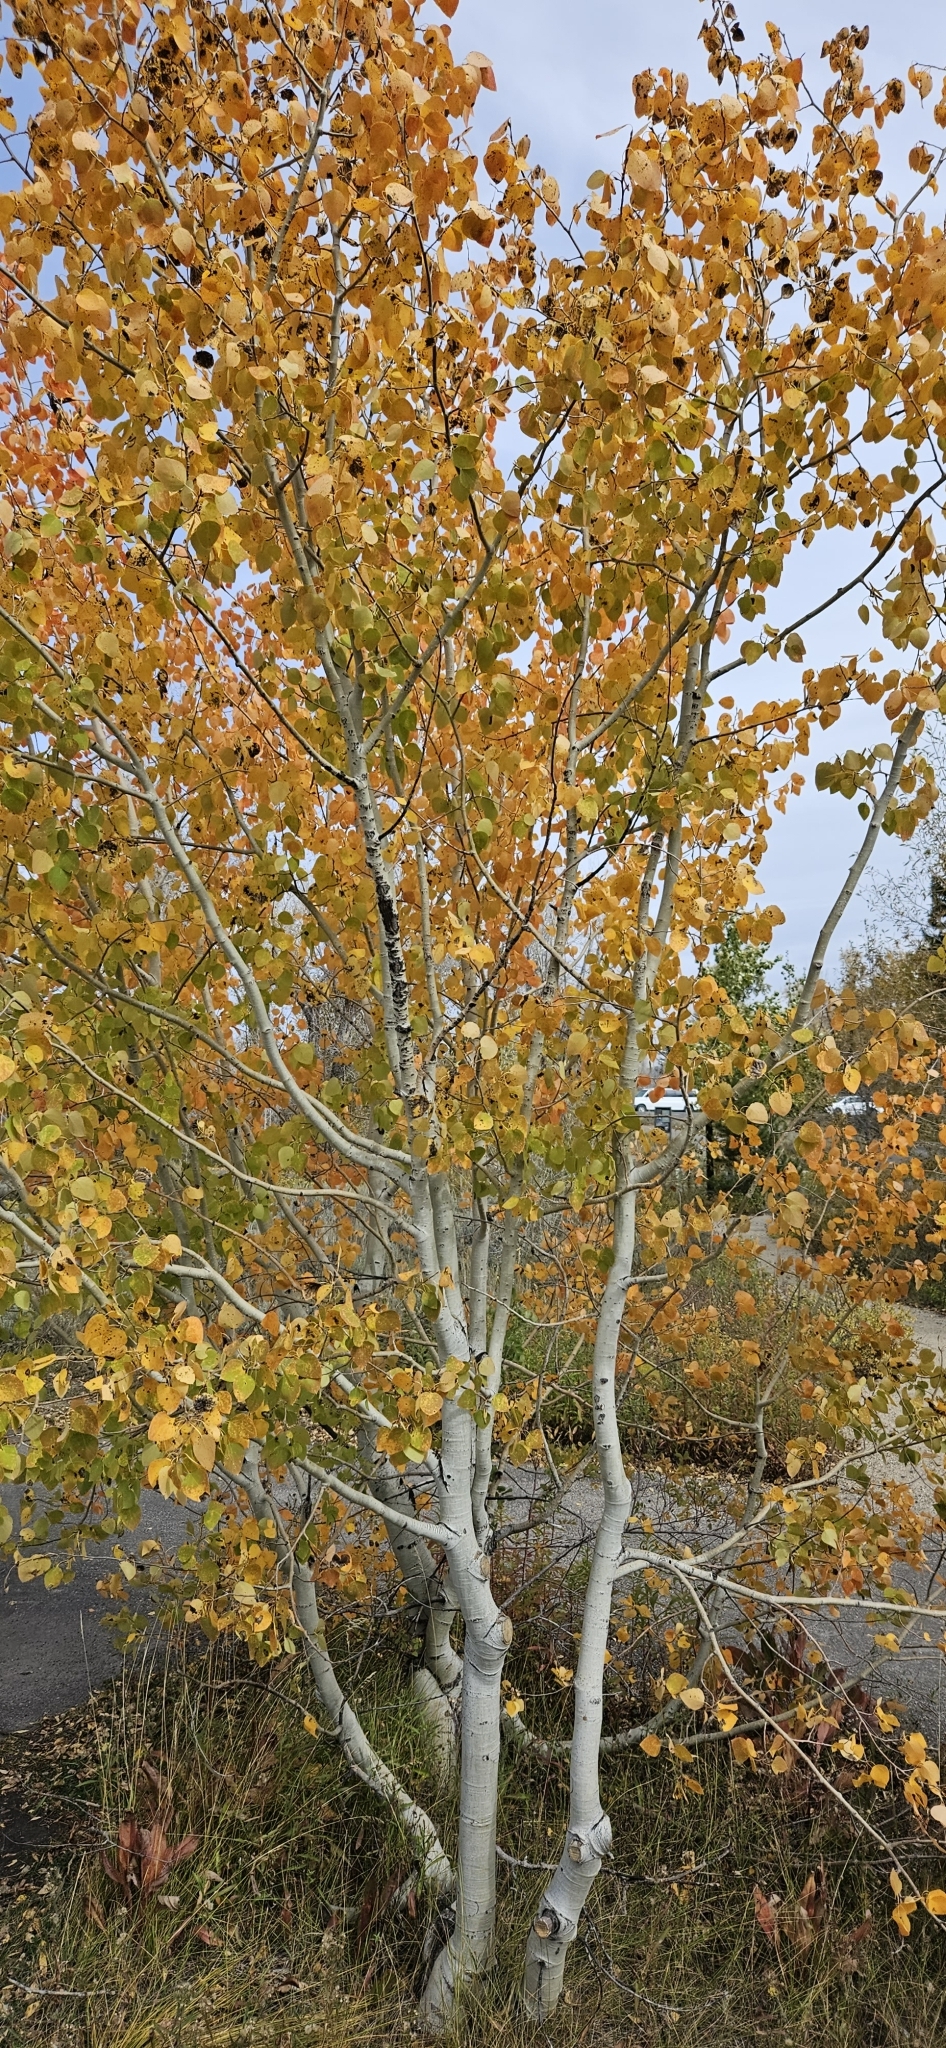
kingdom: Plantae
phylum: Tracheophyta
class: Magnoliopsida
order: Malpighiales
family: Salicaceae
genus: Populus
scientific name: Populus tremuloides
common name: Quaking aspen
